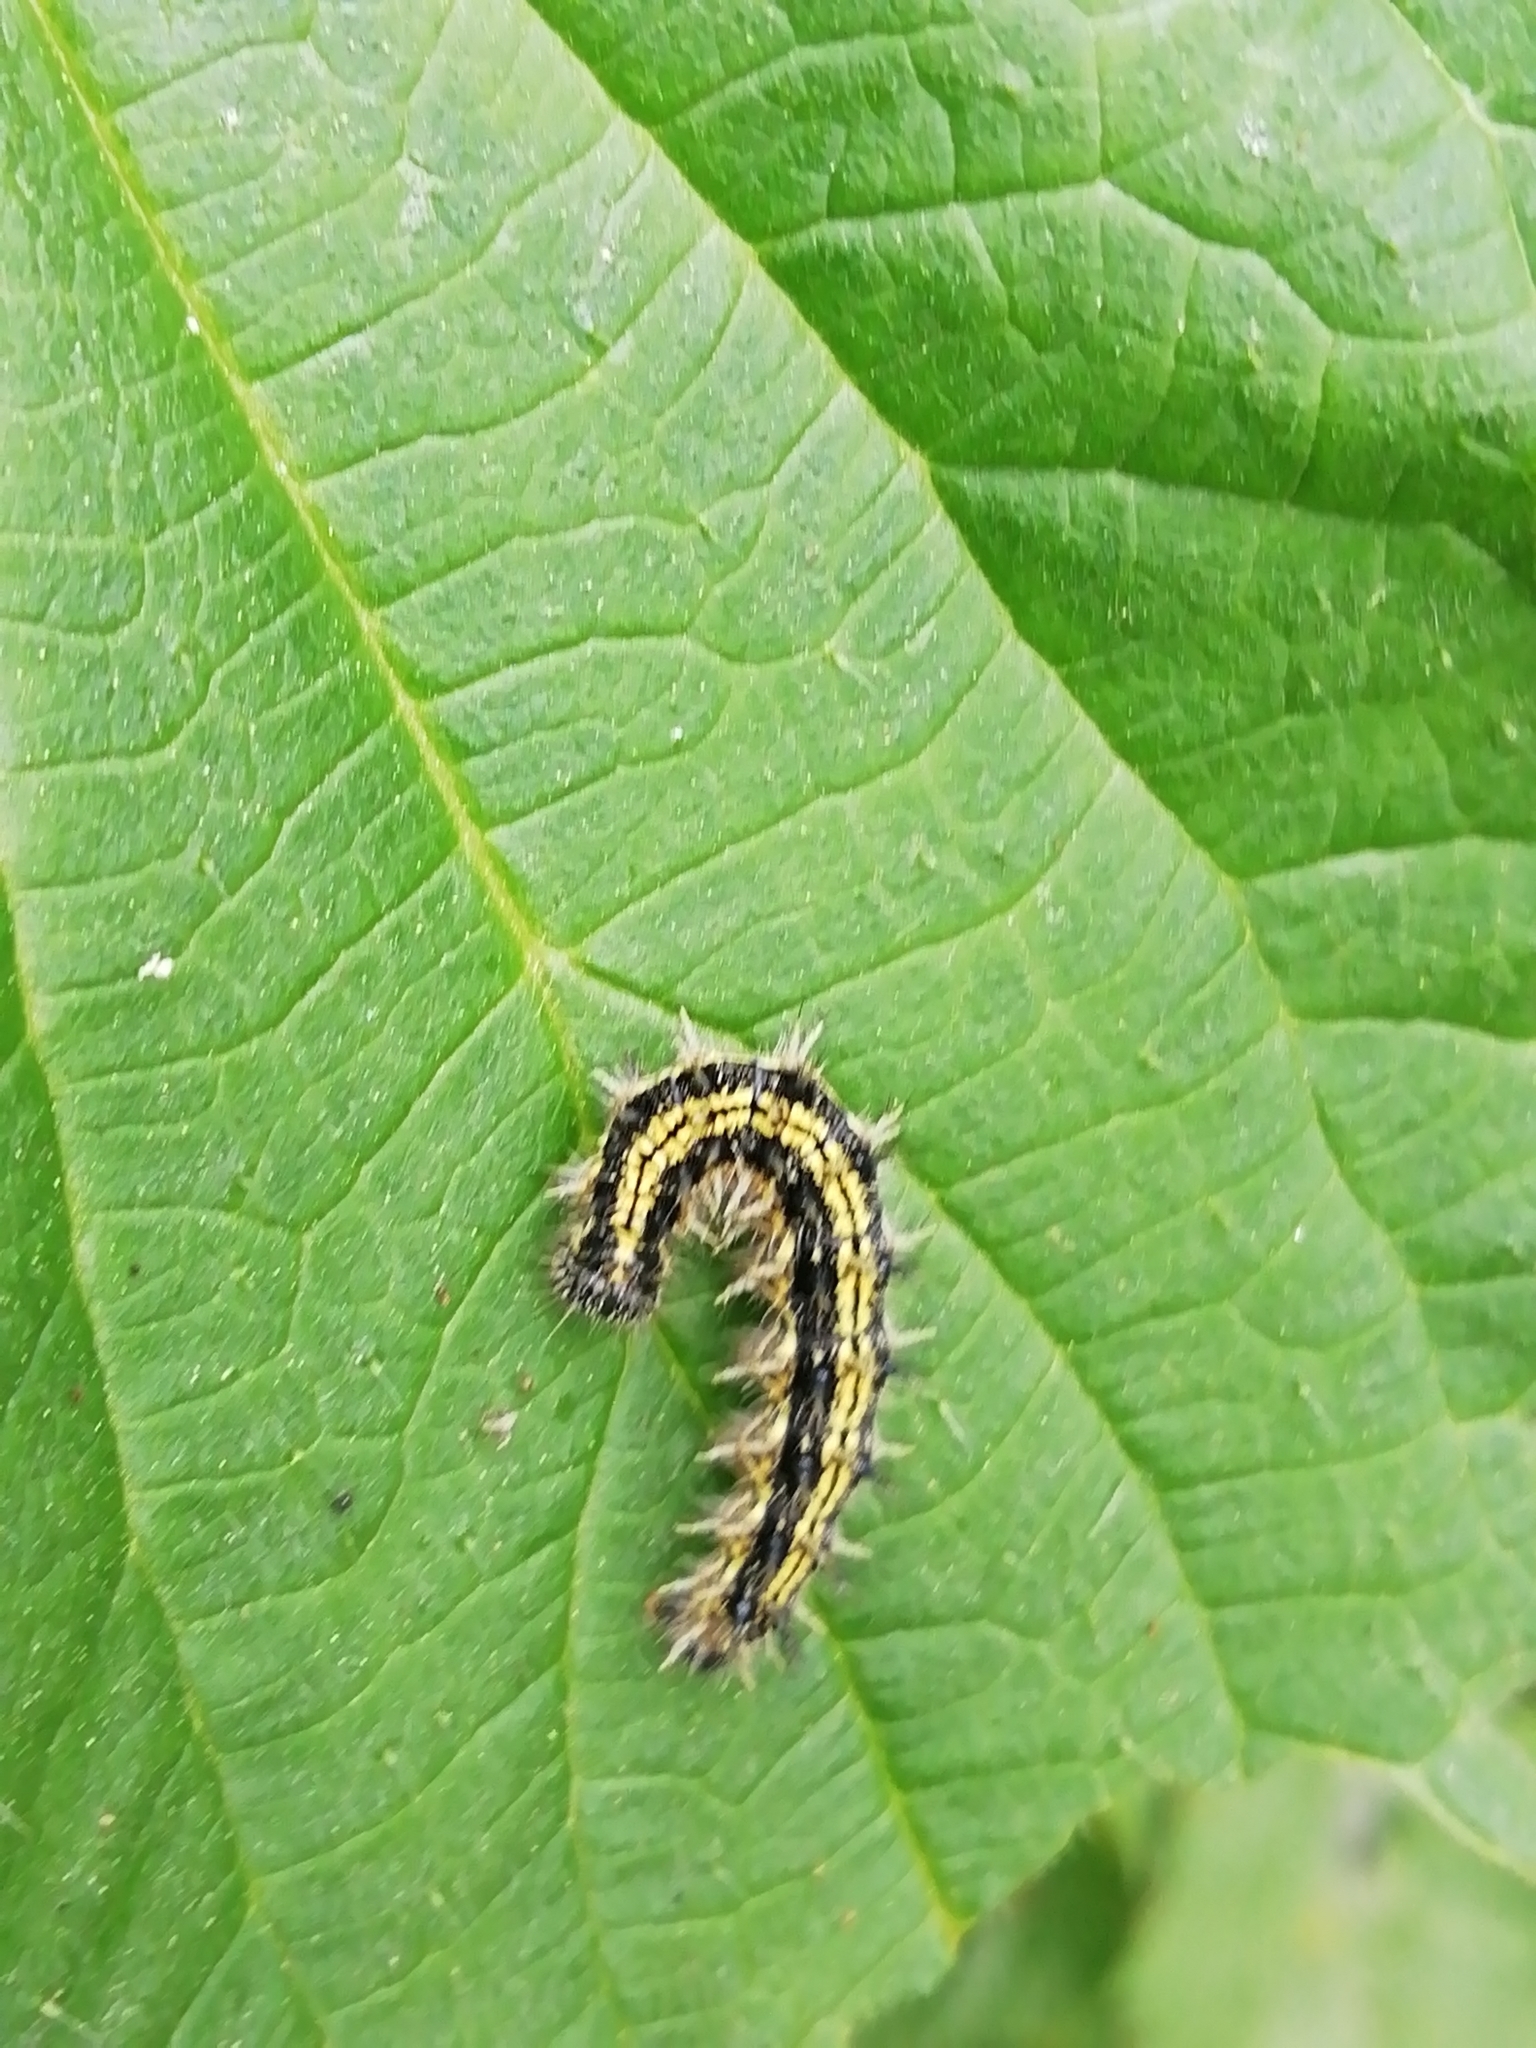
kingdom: Animalia
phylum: Arthropoda
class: Insecta
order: Lepidoptera
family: Nymphalidae
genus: Aglais
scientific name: Aglais urticae
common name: Small tortoiseshell
